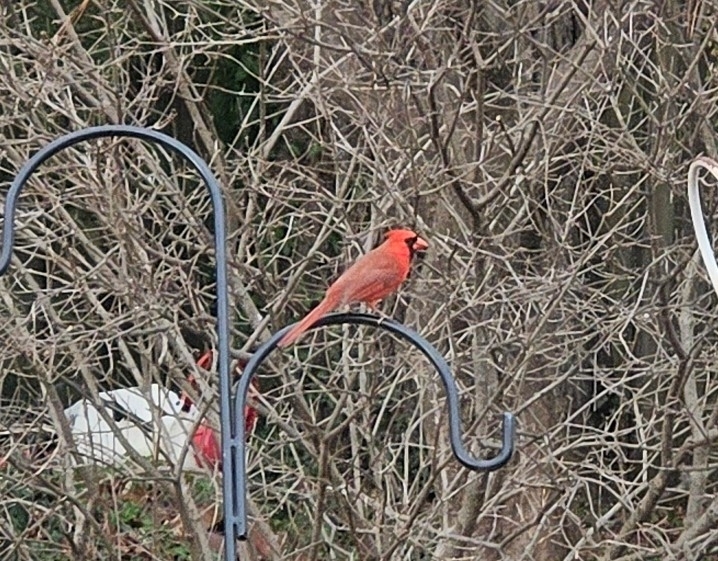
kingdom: Animalia
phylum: Chordata
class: Aves
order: Passeriformes
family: Cardinalidae
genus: Cardinalis
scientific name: Cardinalis cardinalis
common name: Northern cardinal
